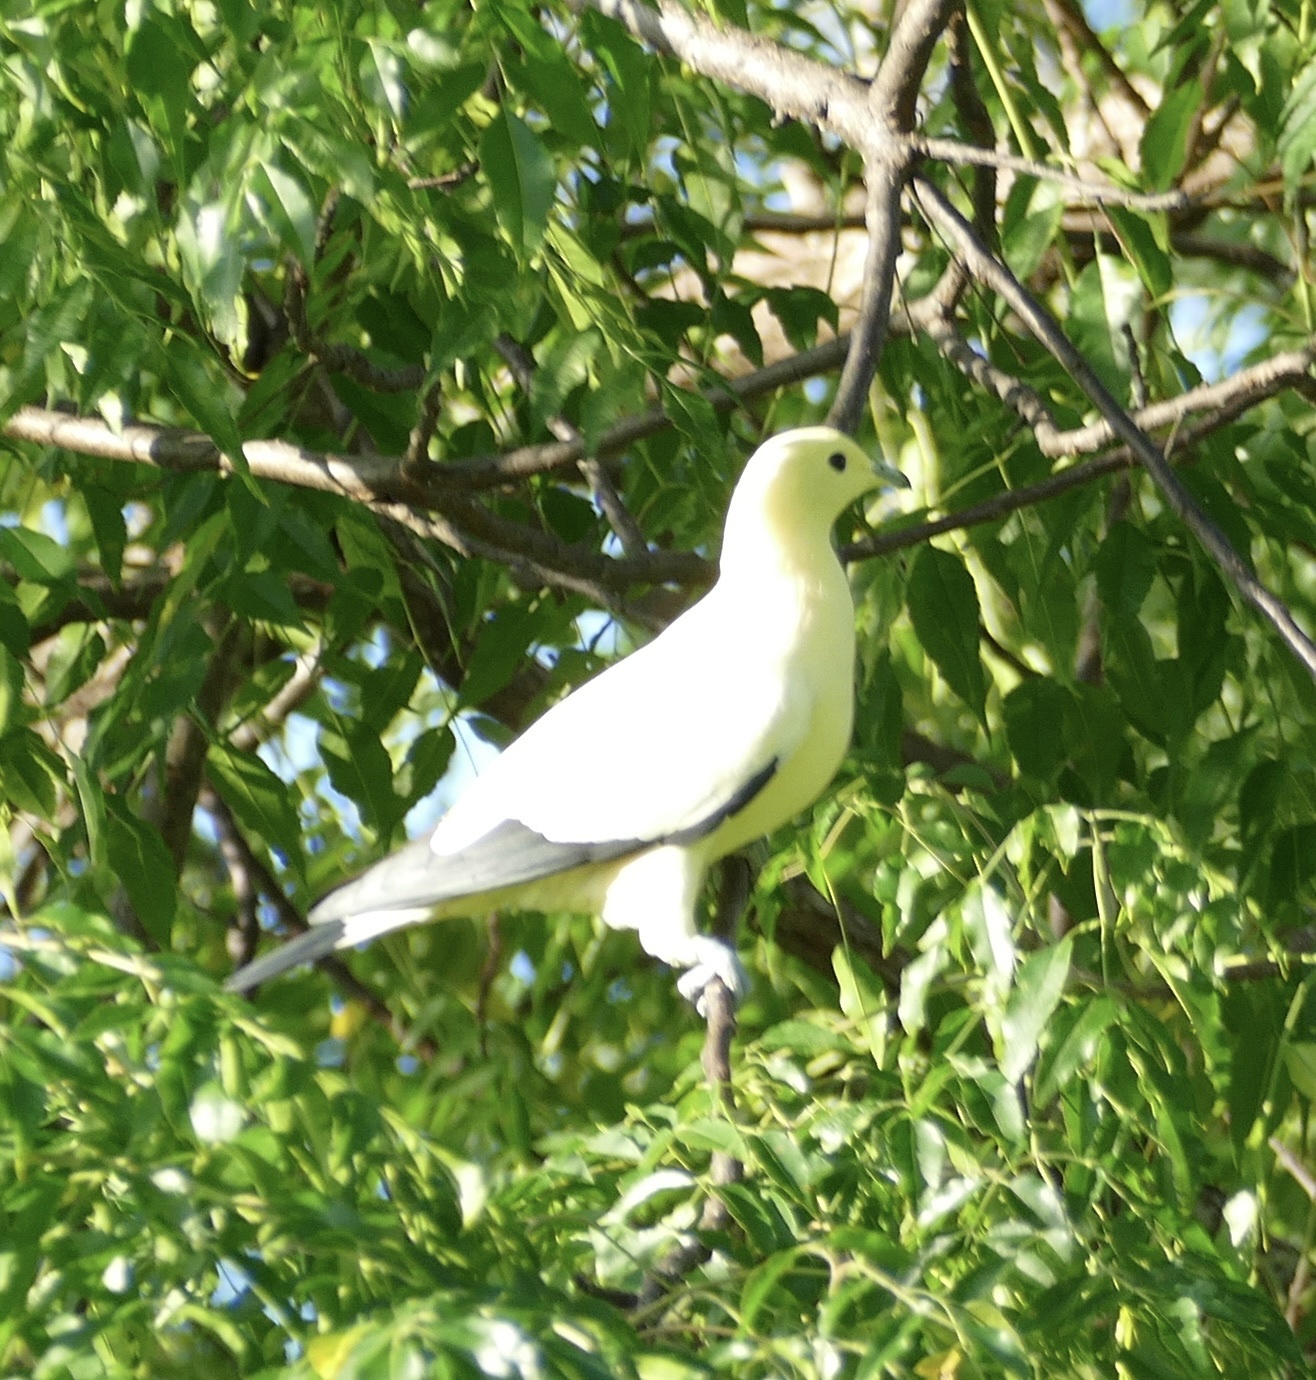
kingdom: Animalia
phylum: Chordata
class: Aves
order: Columbiformes
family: Columbidae
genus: Ducula
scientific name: Ducula bicolor
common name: Pied imperial pigeon
